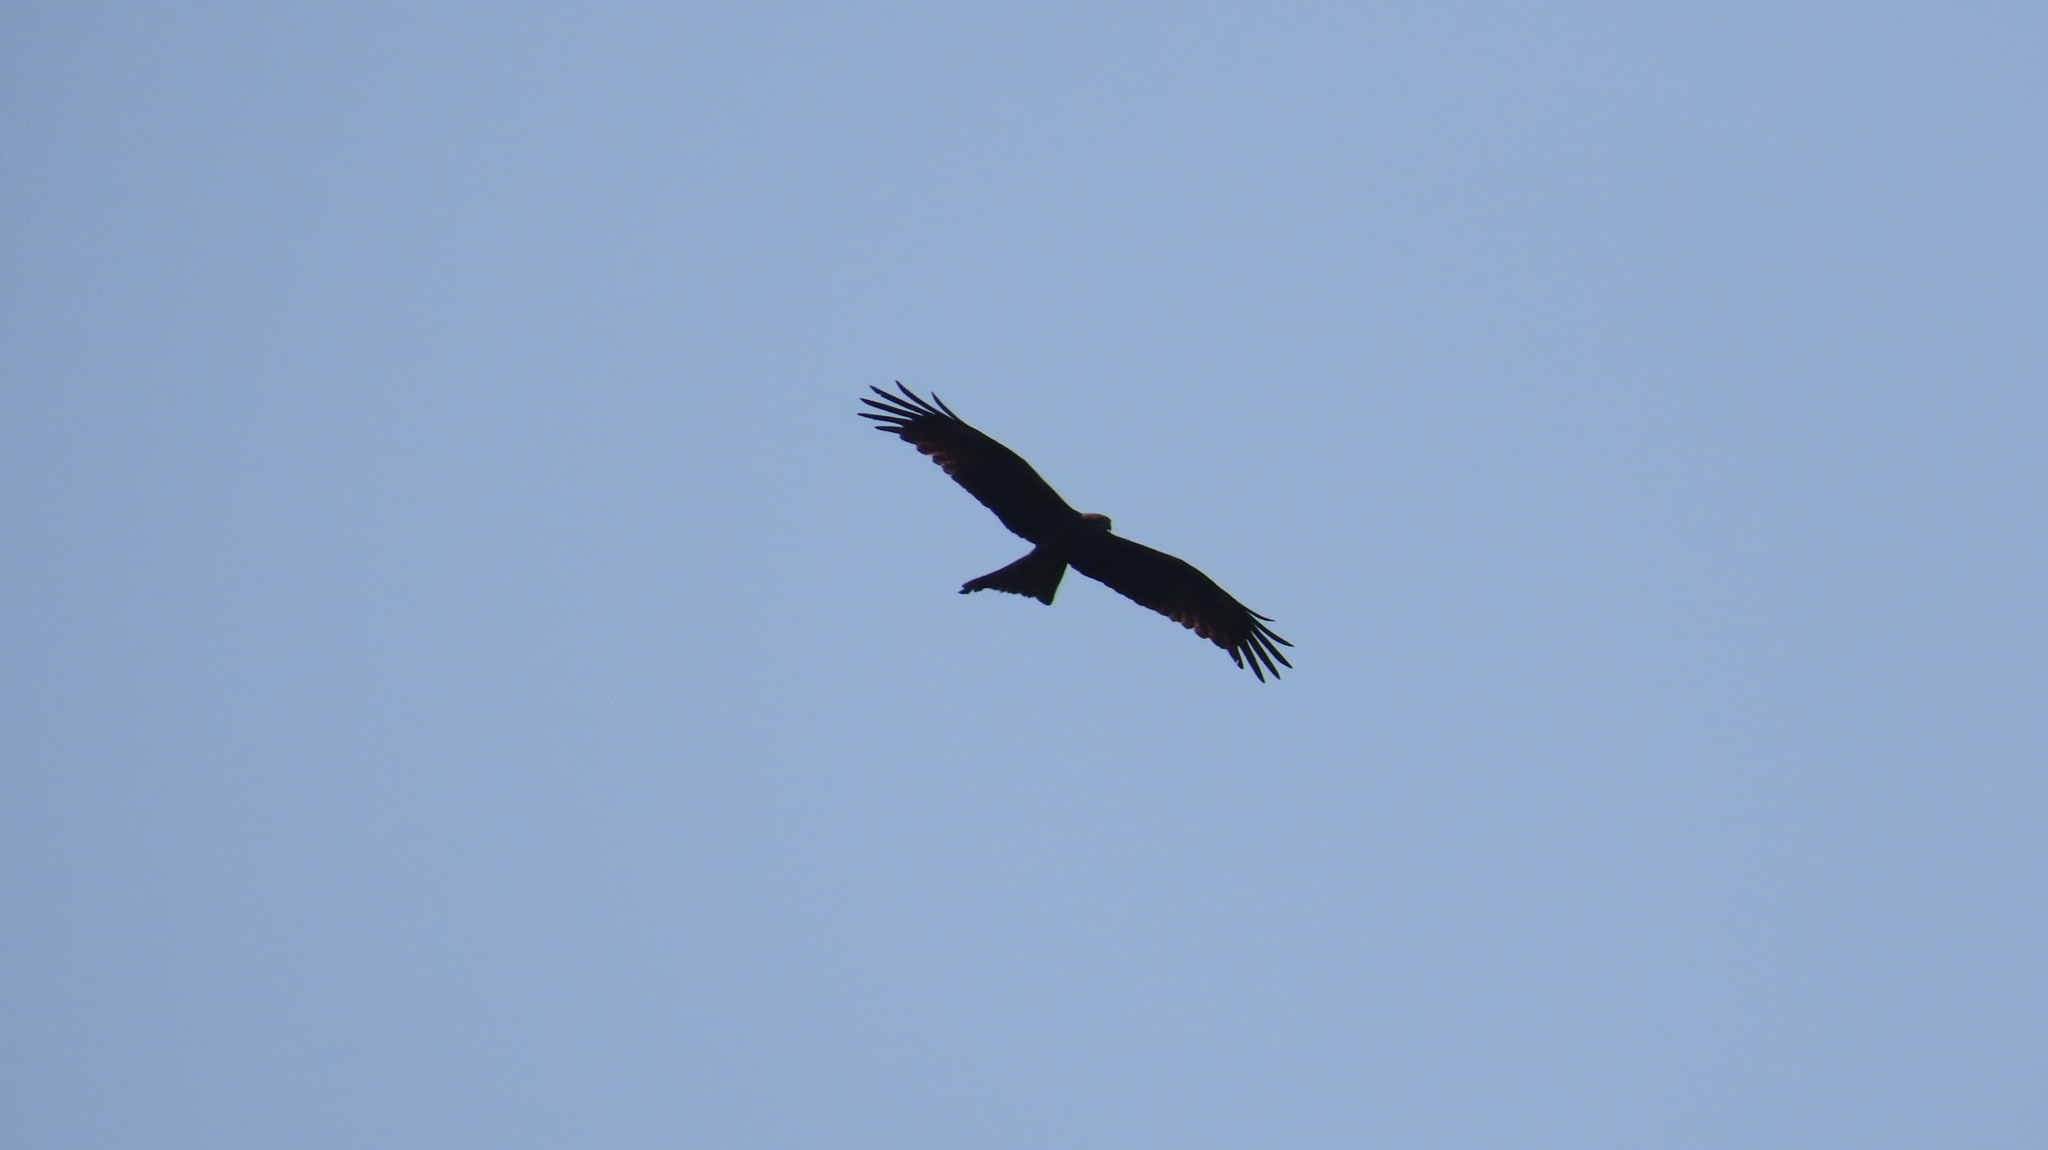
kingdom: Animalia
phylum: Chordata
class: Aves
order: Accipitriformes
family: Accipitridae
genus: Milvus
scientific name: Milvus migrans
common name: Black kite
